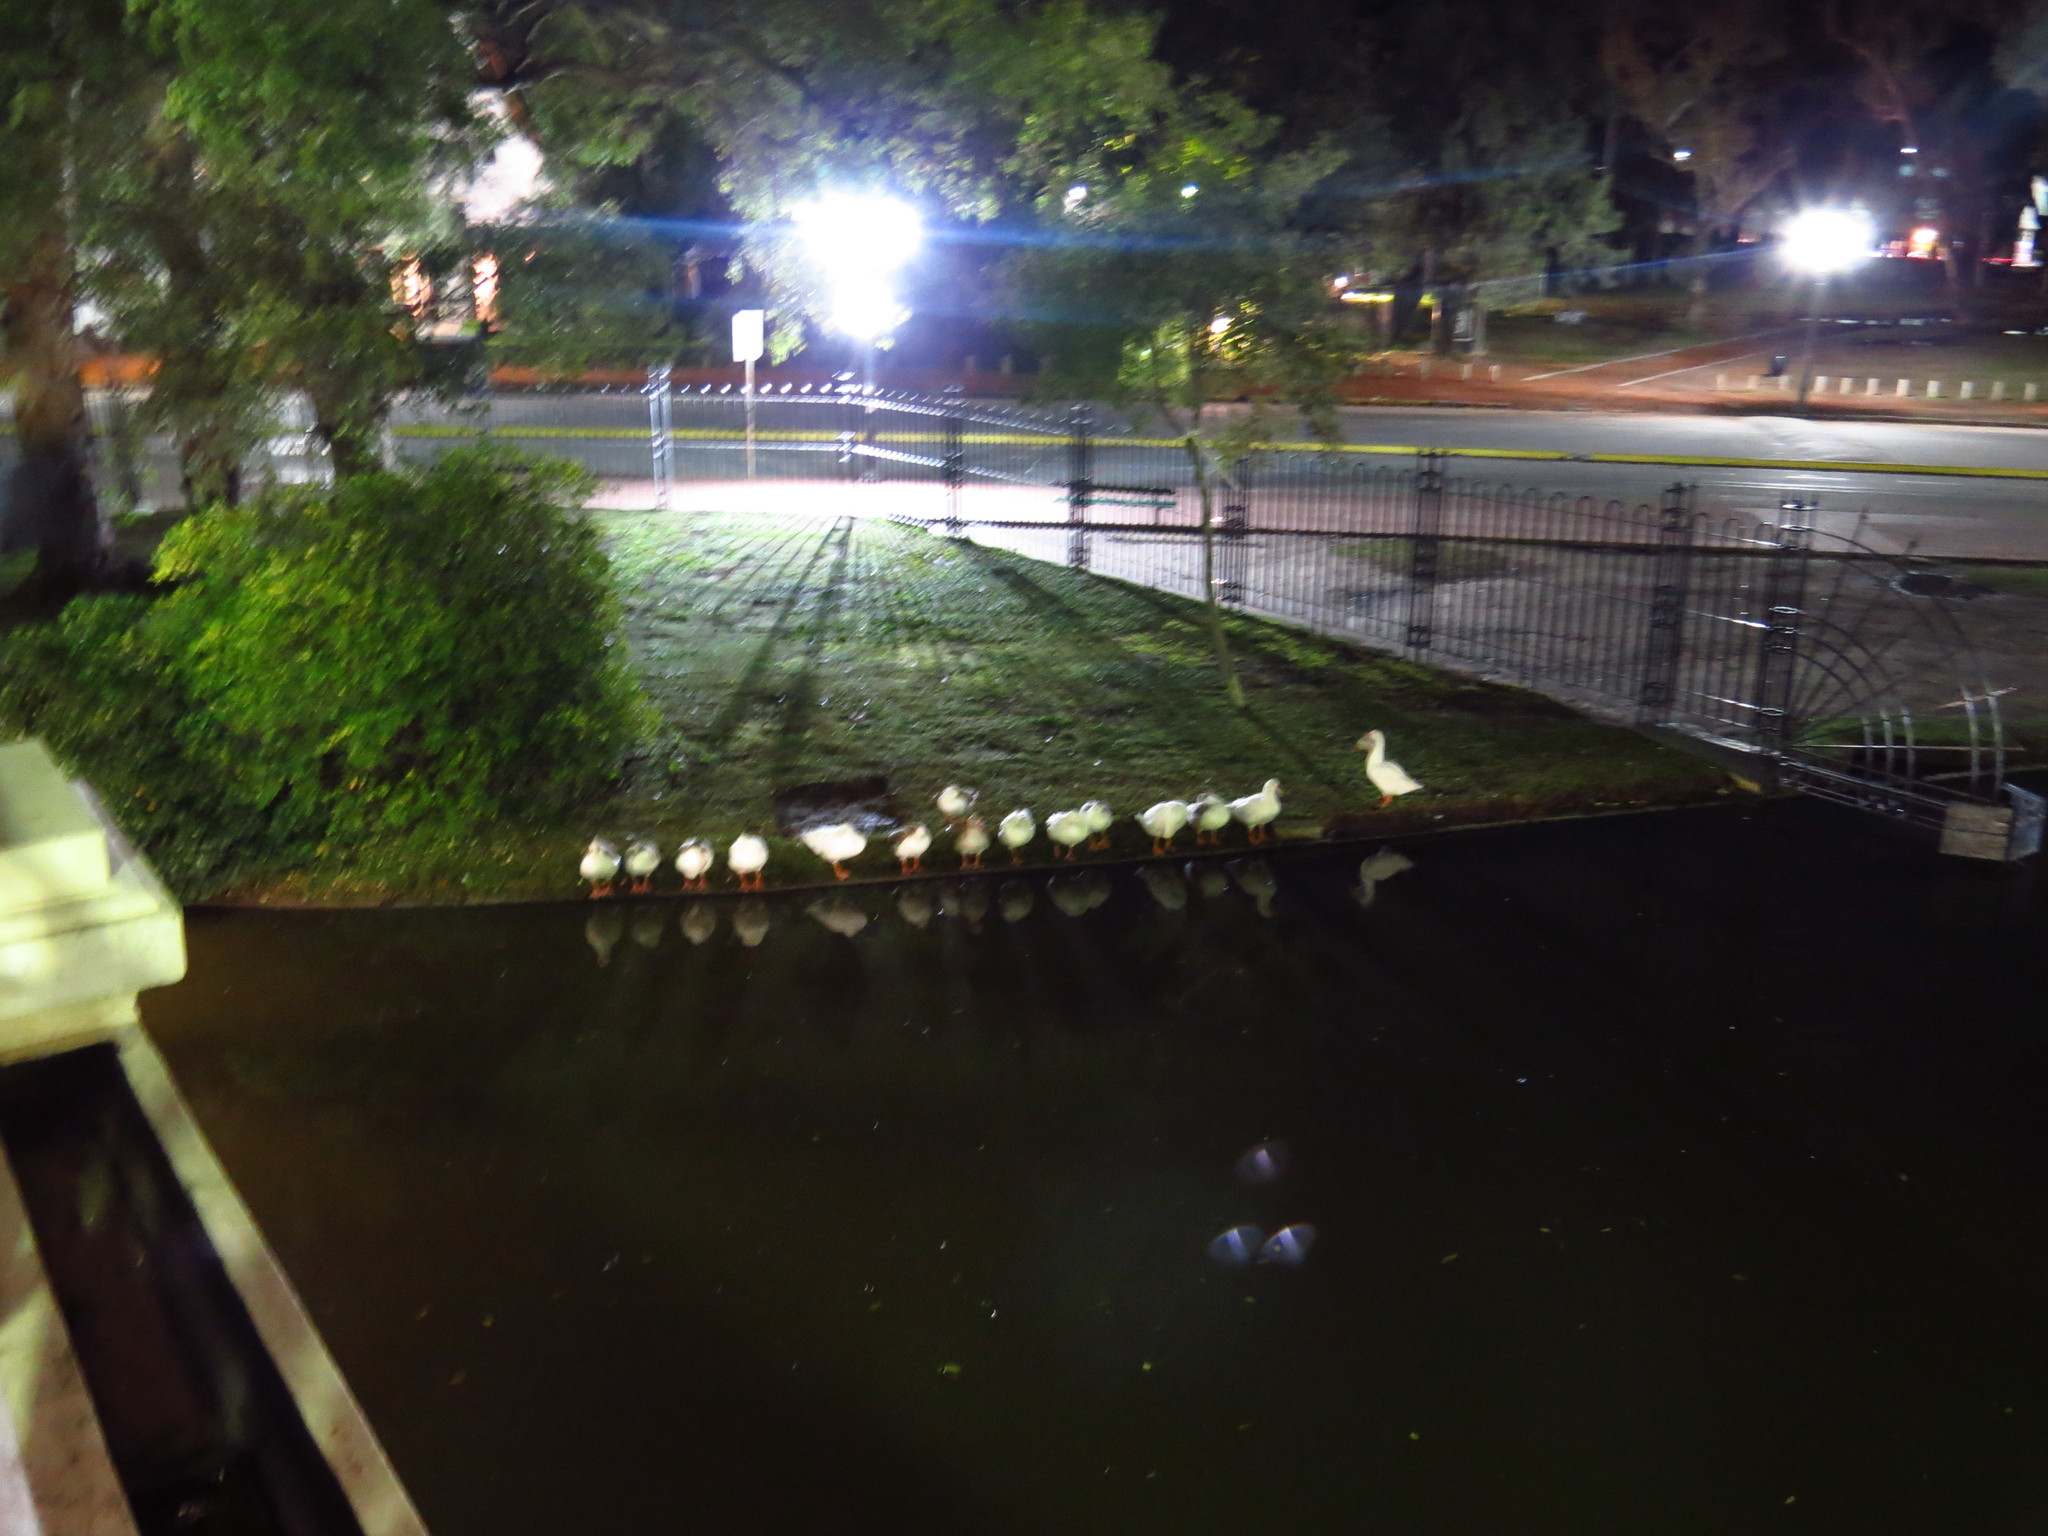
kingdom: Animalia
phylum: Chordata
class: Aves
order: Anseriformes
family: Anatidae
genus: Anser
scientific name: Anser anser
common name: Greylag goose
